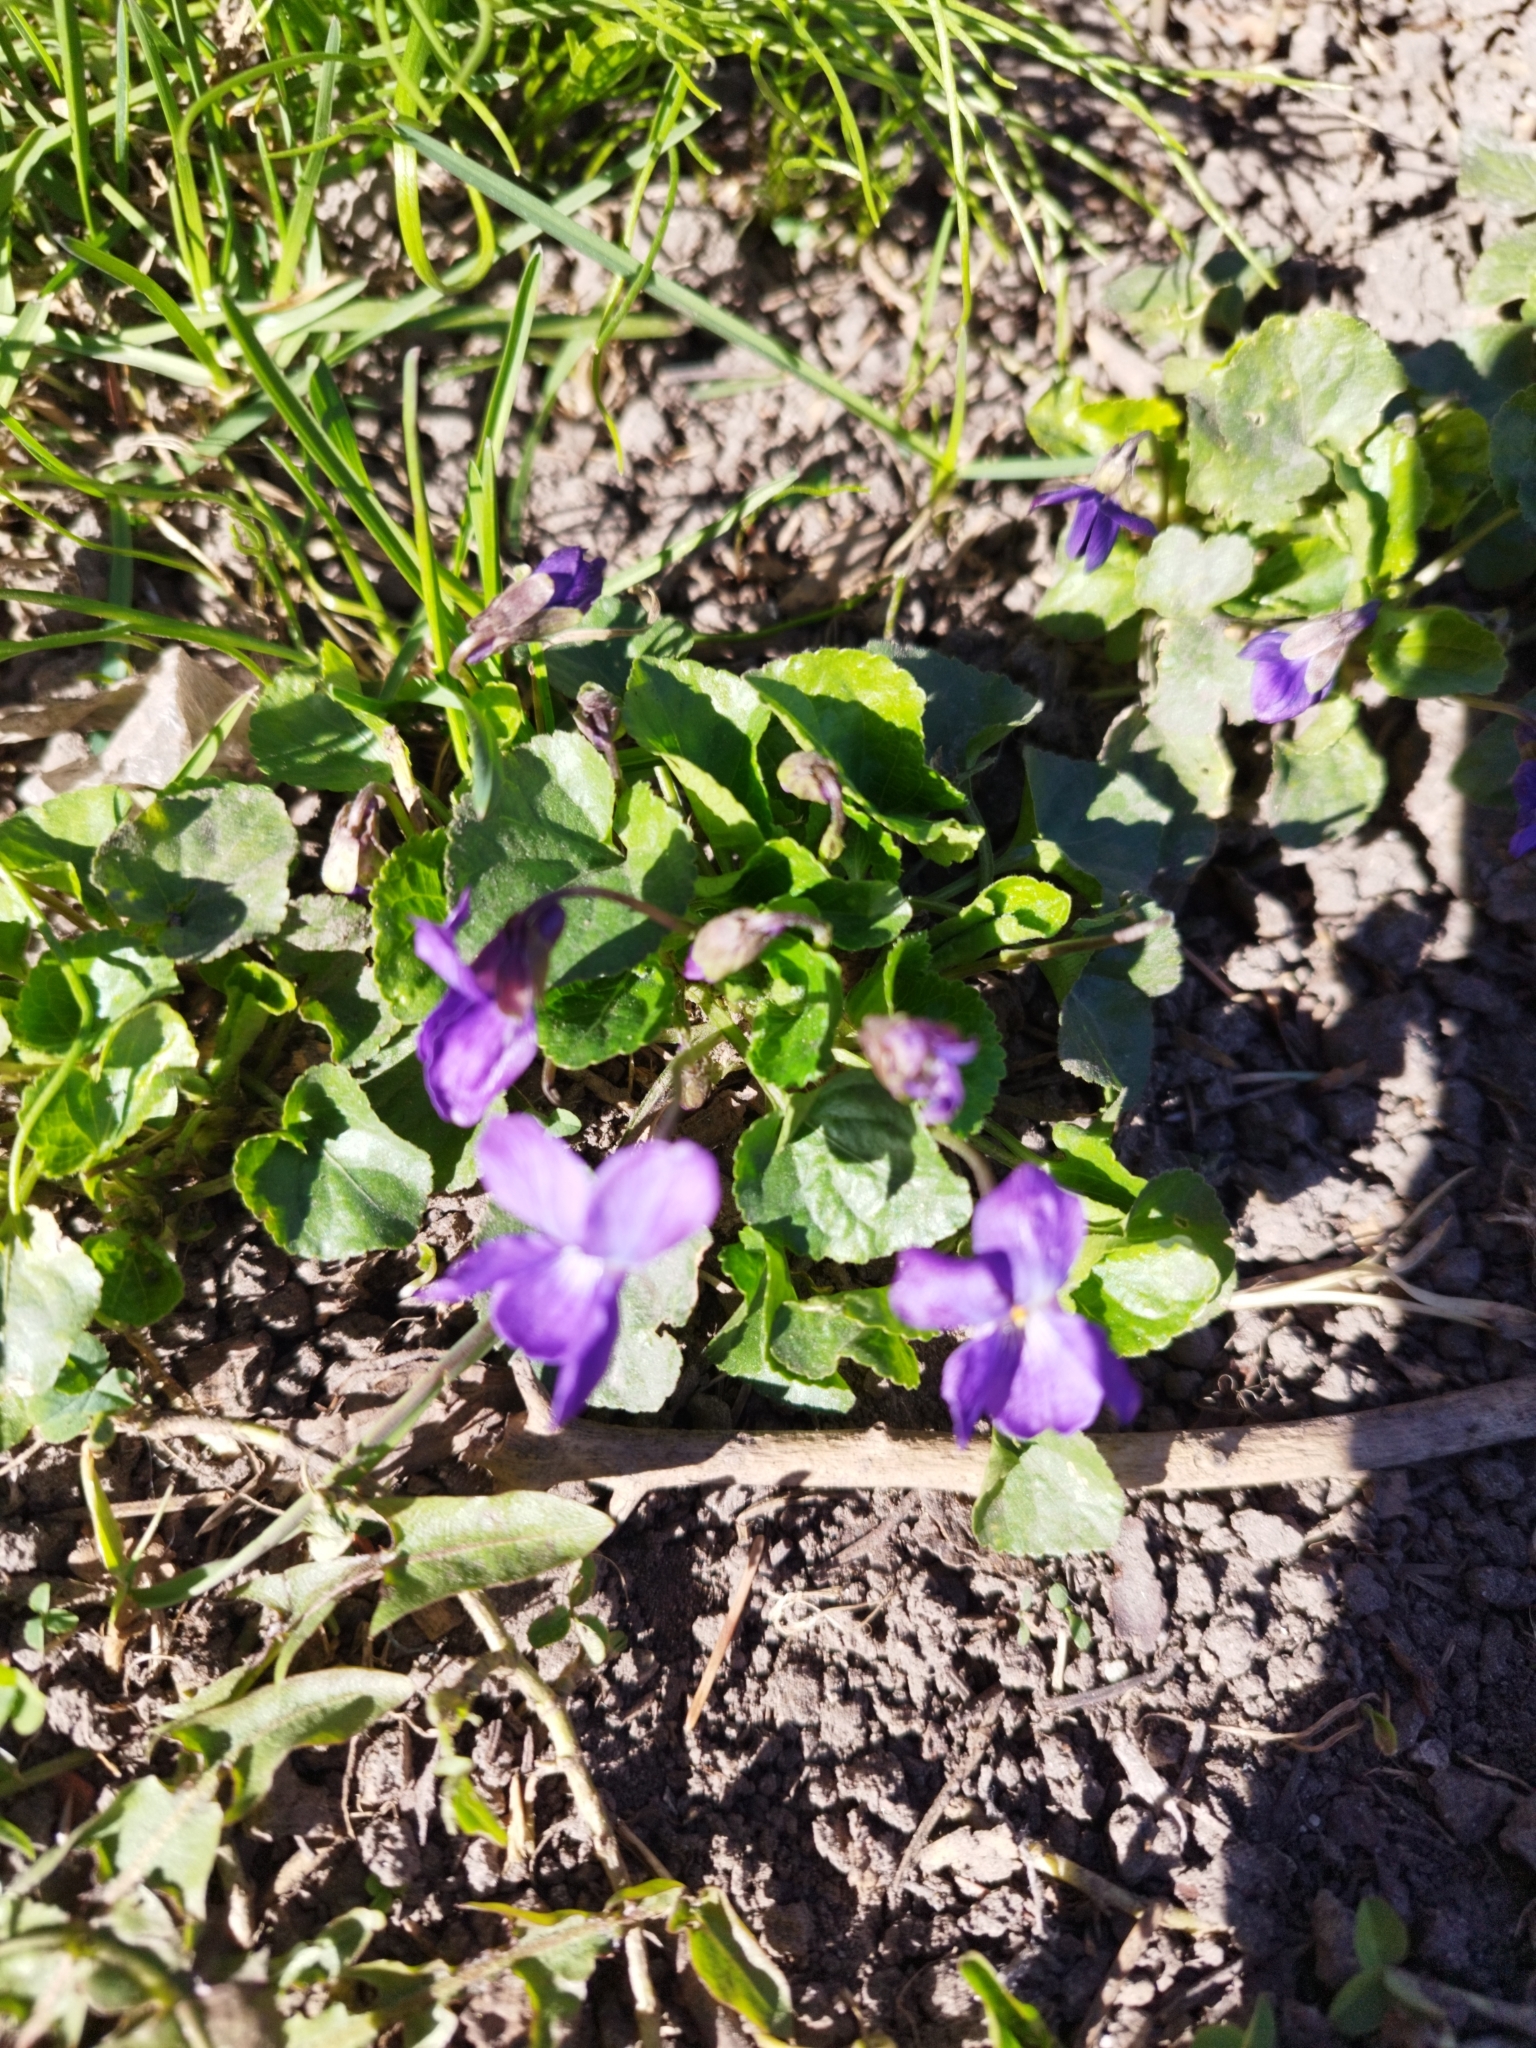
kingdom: Plantae
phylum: Tracheophyta
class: Magnoliopsida
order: Malpighiales
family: Violaceae
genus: Viola
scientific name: Viola odorata
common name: Sweet violet
